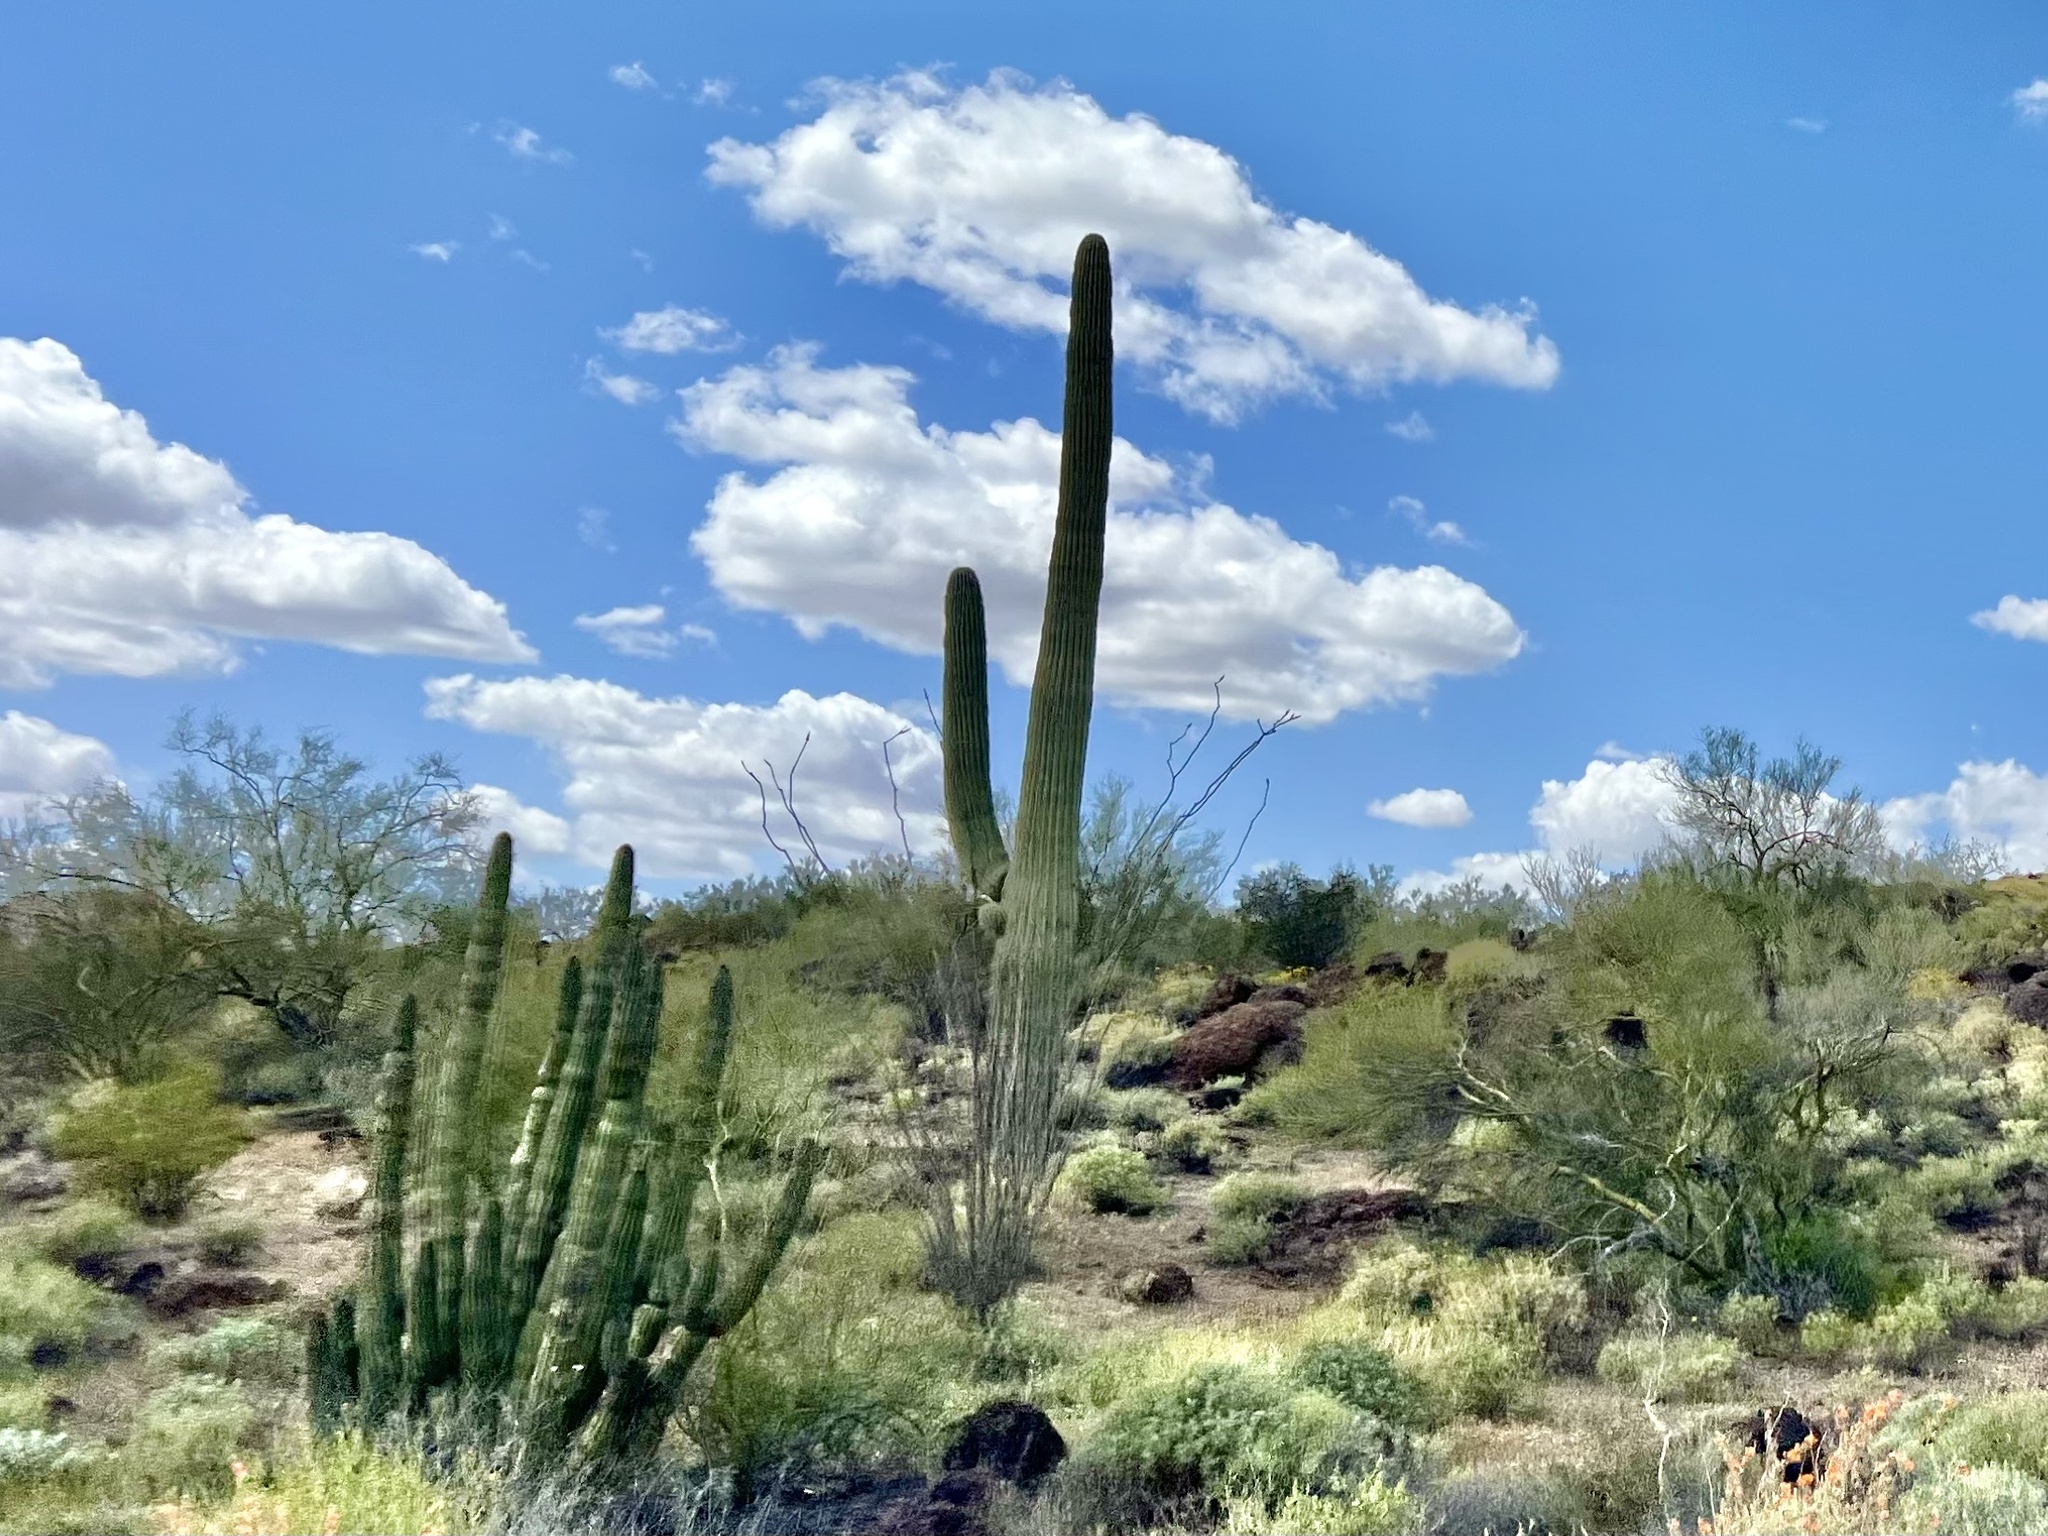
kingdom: Plantae
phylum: Tracheophyta
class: Magnoliopsida
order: Caryophyllales
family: Cactaceae
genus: Carnegiea
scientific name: Carnegiea gigantea
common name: Saguaro
